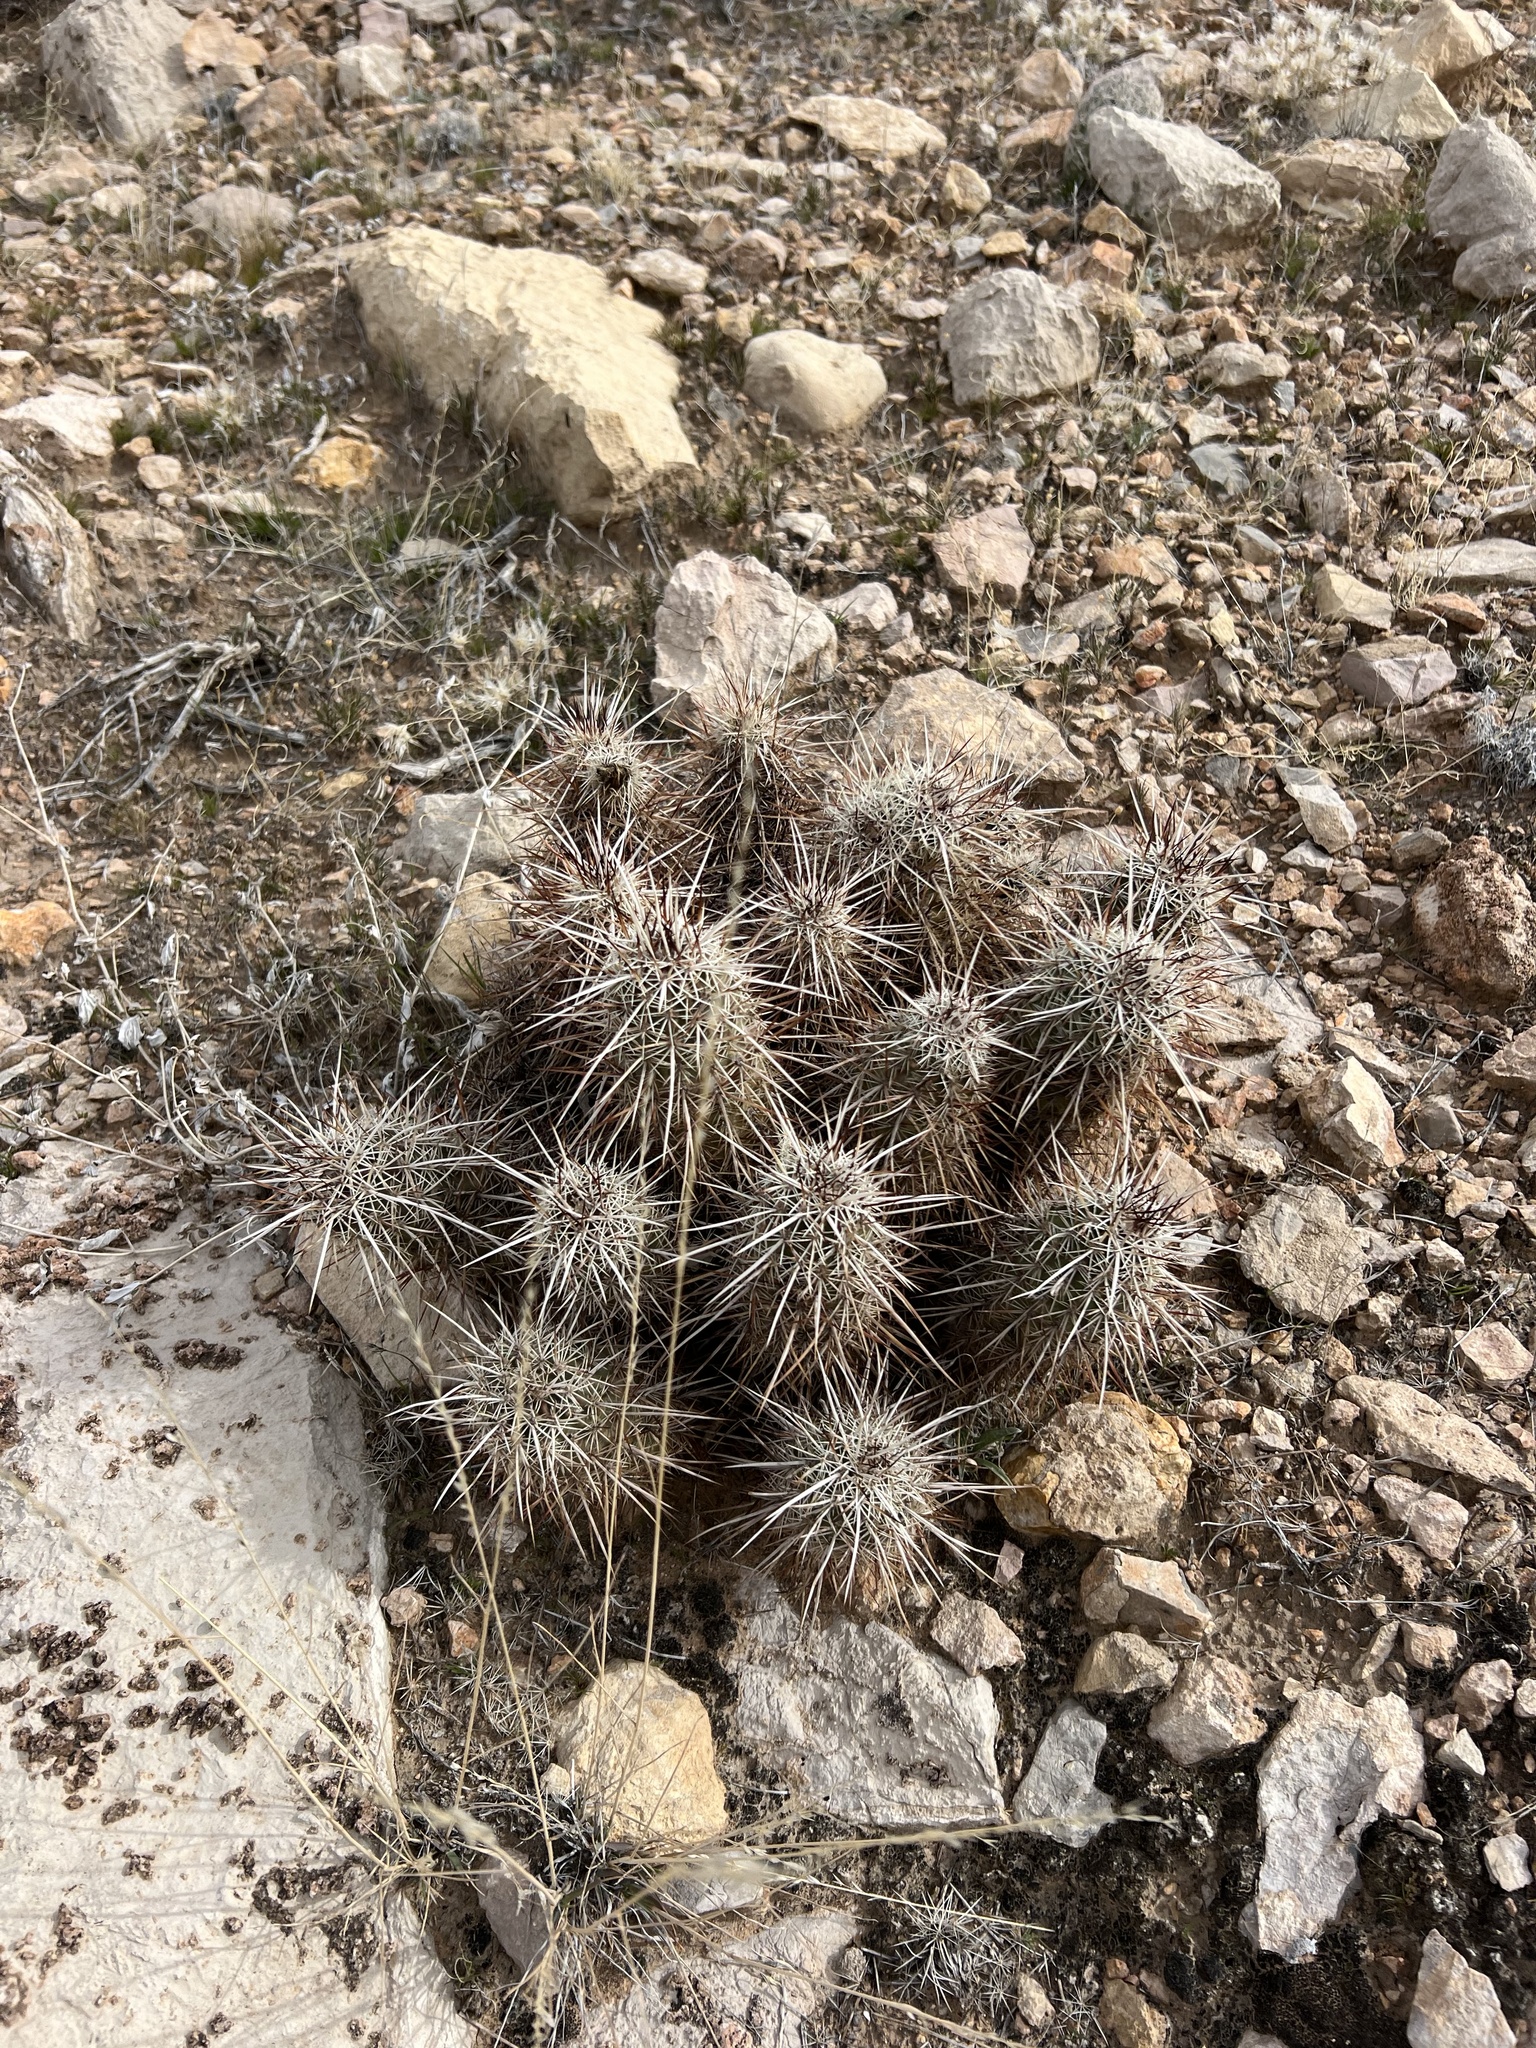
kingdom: Plantae
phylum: Tracheophyta
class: Magnoliopsida
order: Caryophyllales
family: Cactaceae
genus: Echinocereus
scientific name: Echinocereus engelmannii
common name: Engelmann's hedgehog cactus
